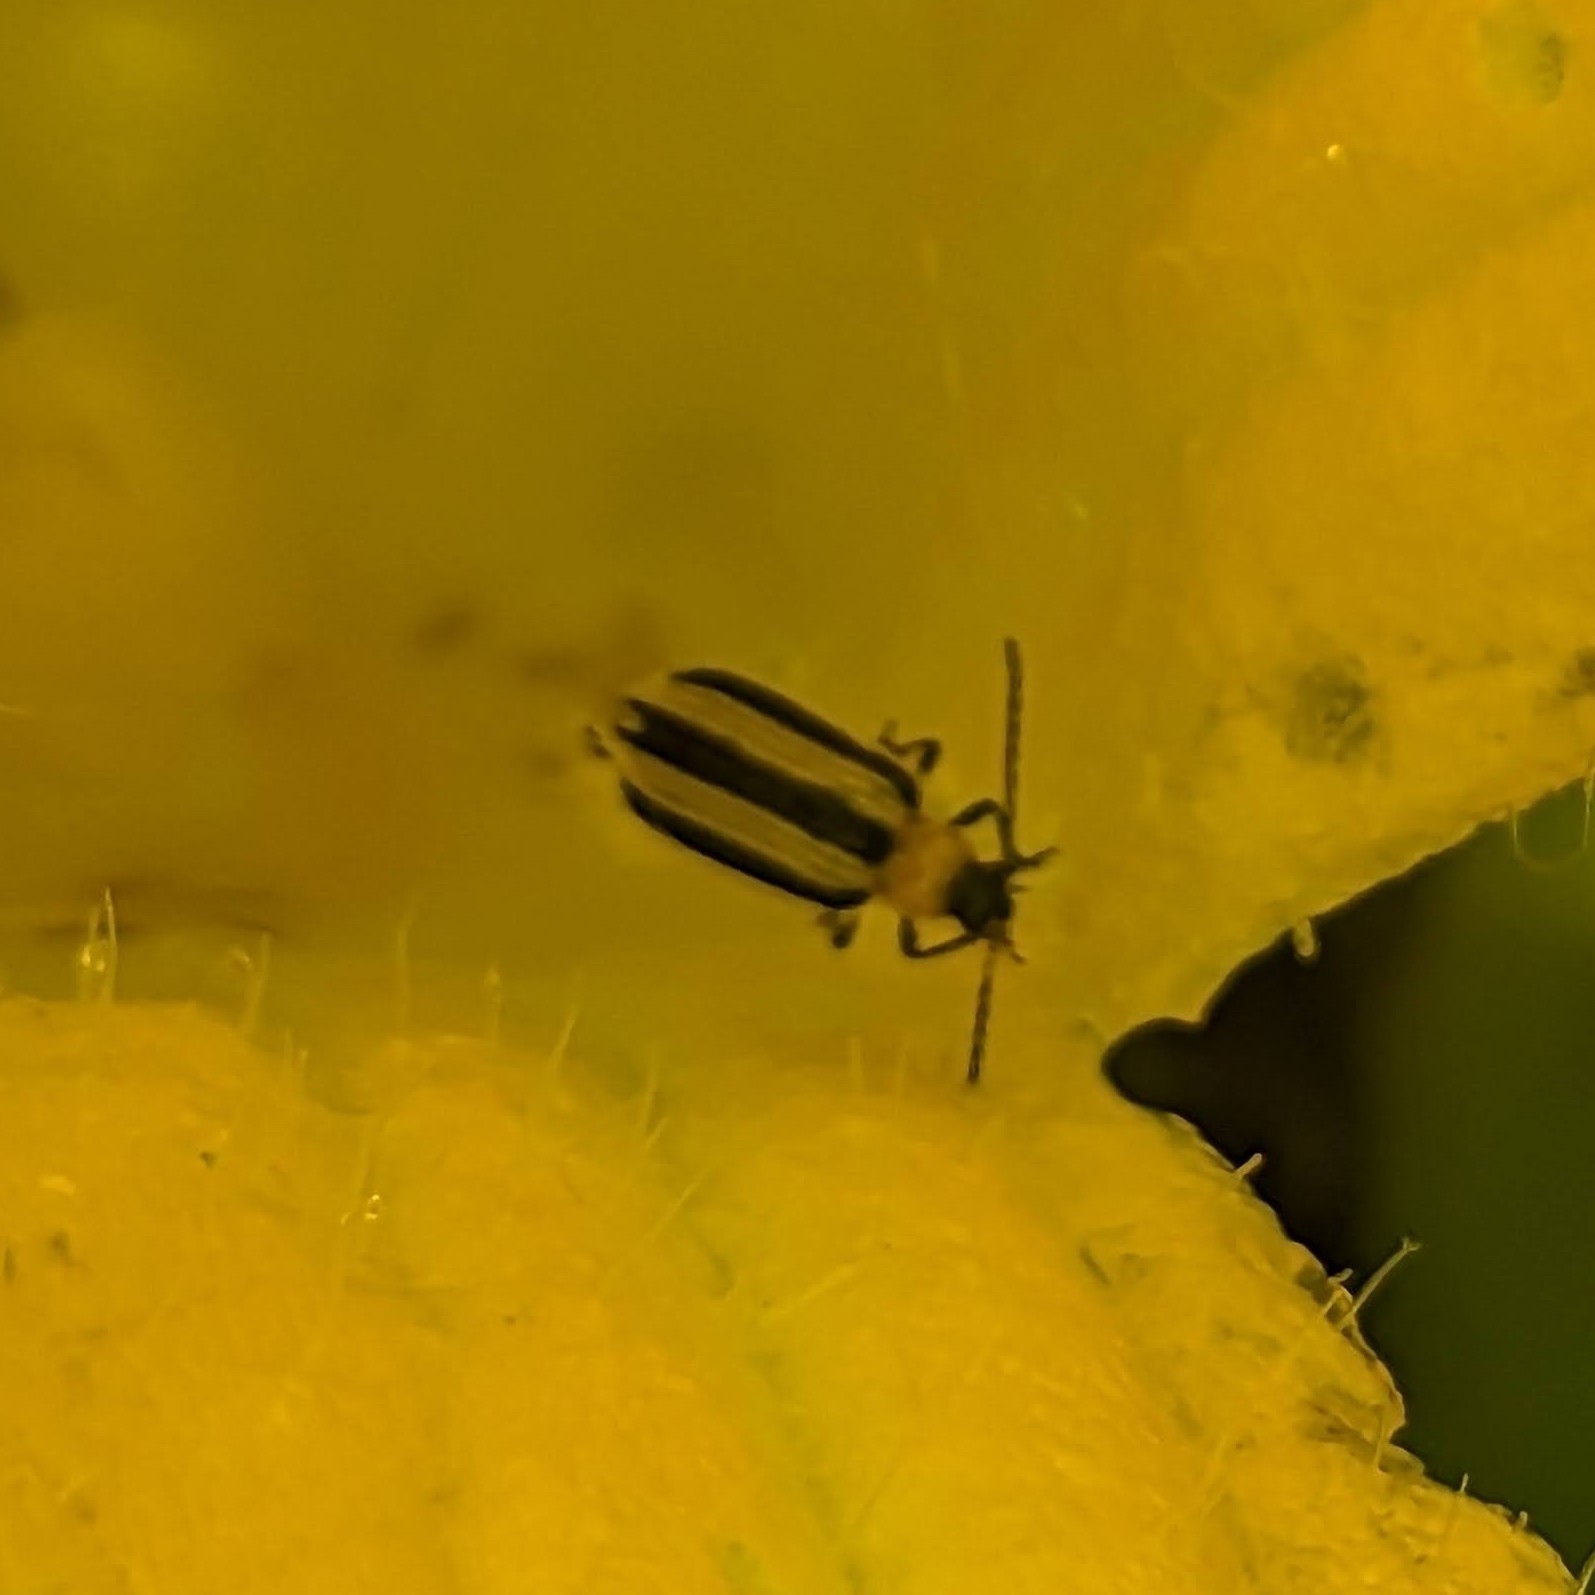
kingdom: Animalia
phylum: Arthropoda
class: Insecta
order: Coleoptera
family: Chrysomelidae
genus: Acalymma
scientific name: Acalymma vittatum
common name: Striped cucumber beetle
